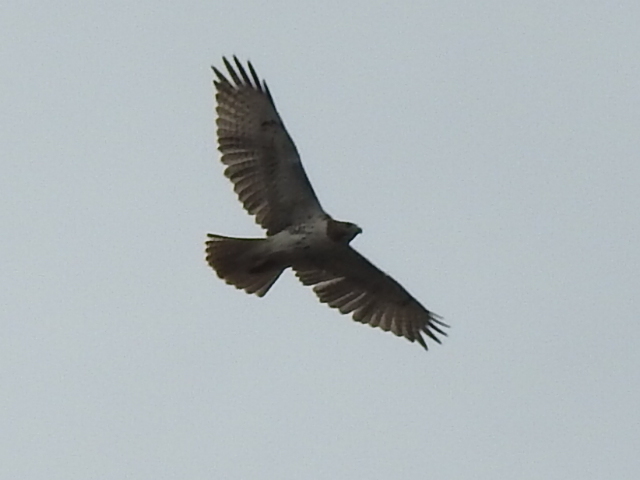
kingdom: Animalia
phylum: Chordata
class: Aves
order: Accipitriformes
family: Accipitridae
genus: Buteo
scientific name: Buteo jamaicensis
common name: Red-tailed hawk
